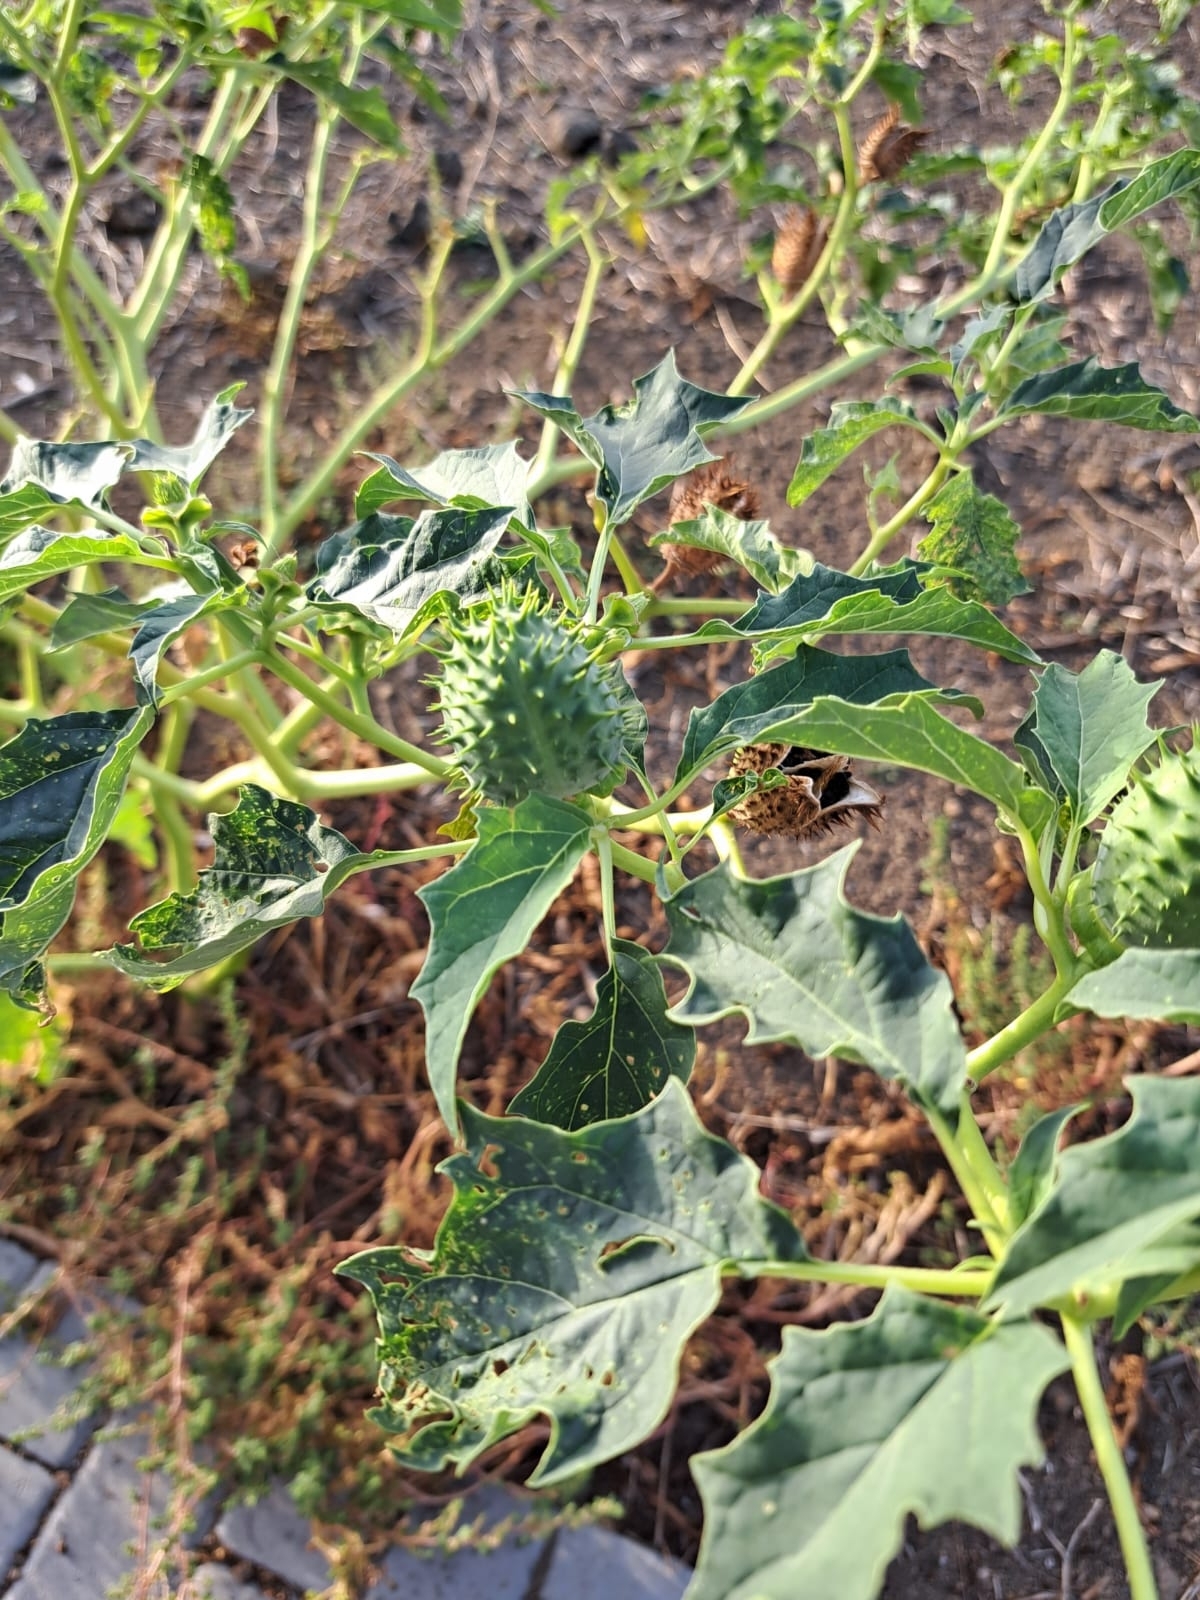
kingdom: Plantae
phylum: Tracheophyta
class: Magnoliopsida
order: Solanales
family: Solanaceae
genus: Datura
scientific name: Datura stramonium
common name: Thorn-apple
